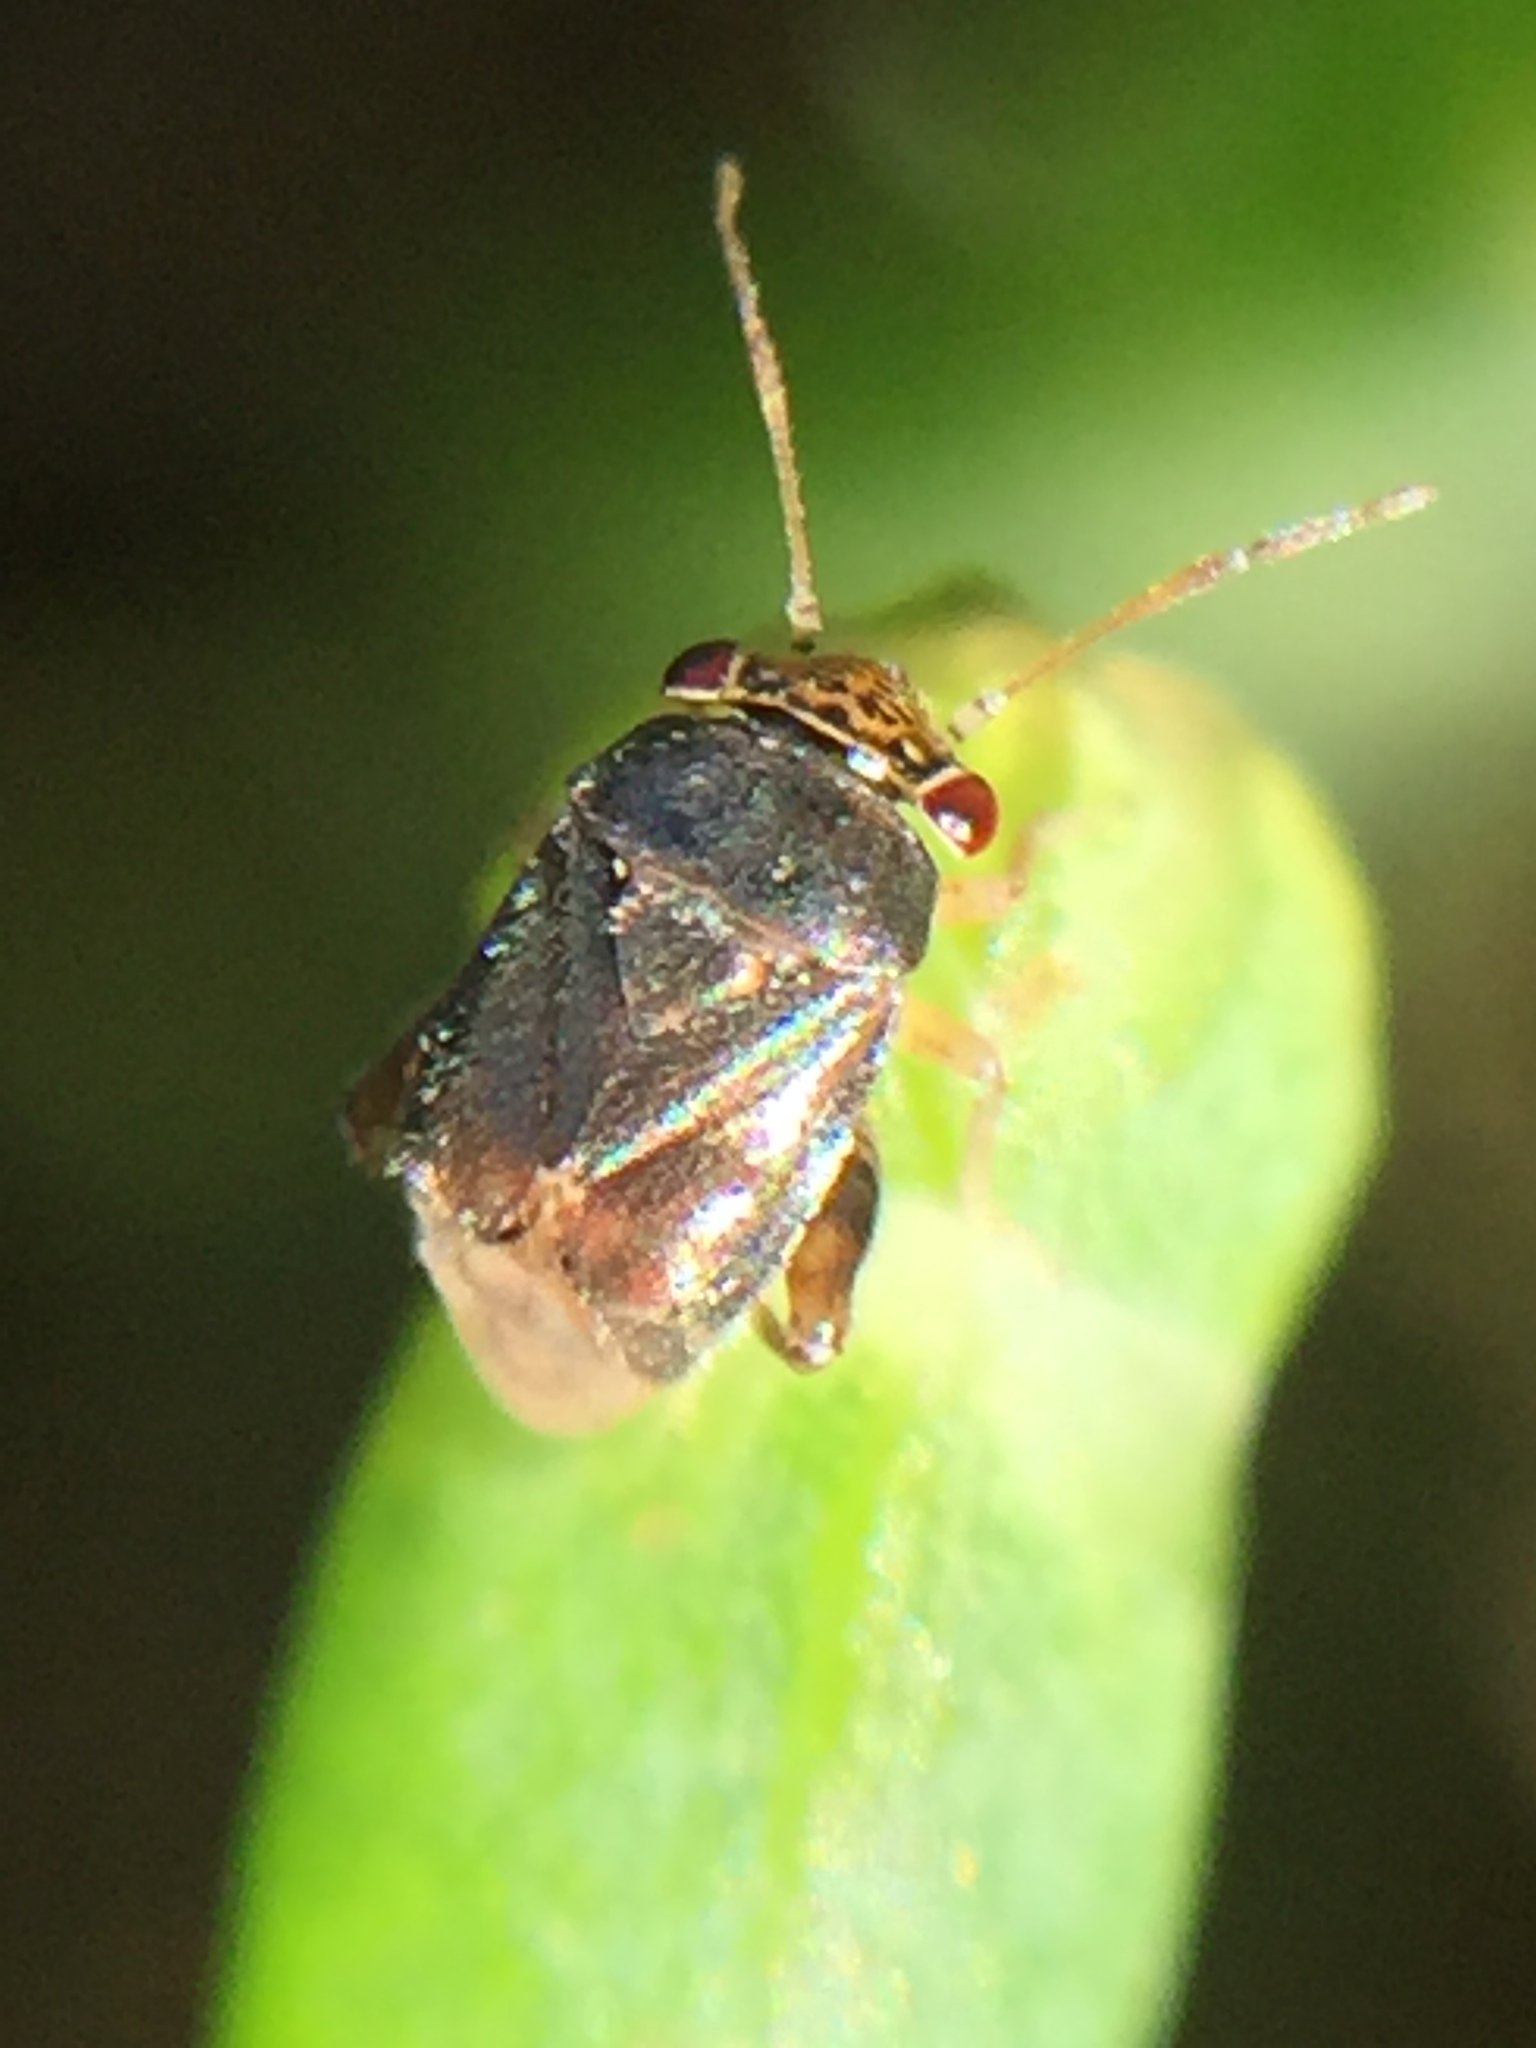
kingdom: Animalia
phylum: Arthropoda
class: Insecta
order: Hemiptera
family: Miridae
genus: Coridromius
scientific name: Coridromius chenopoderis
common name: Plant bug
